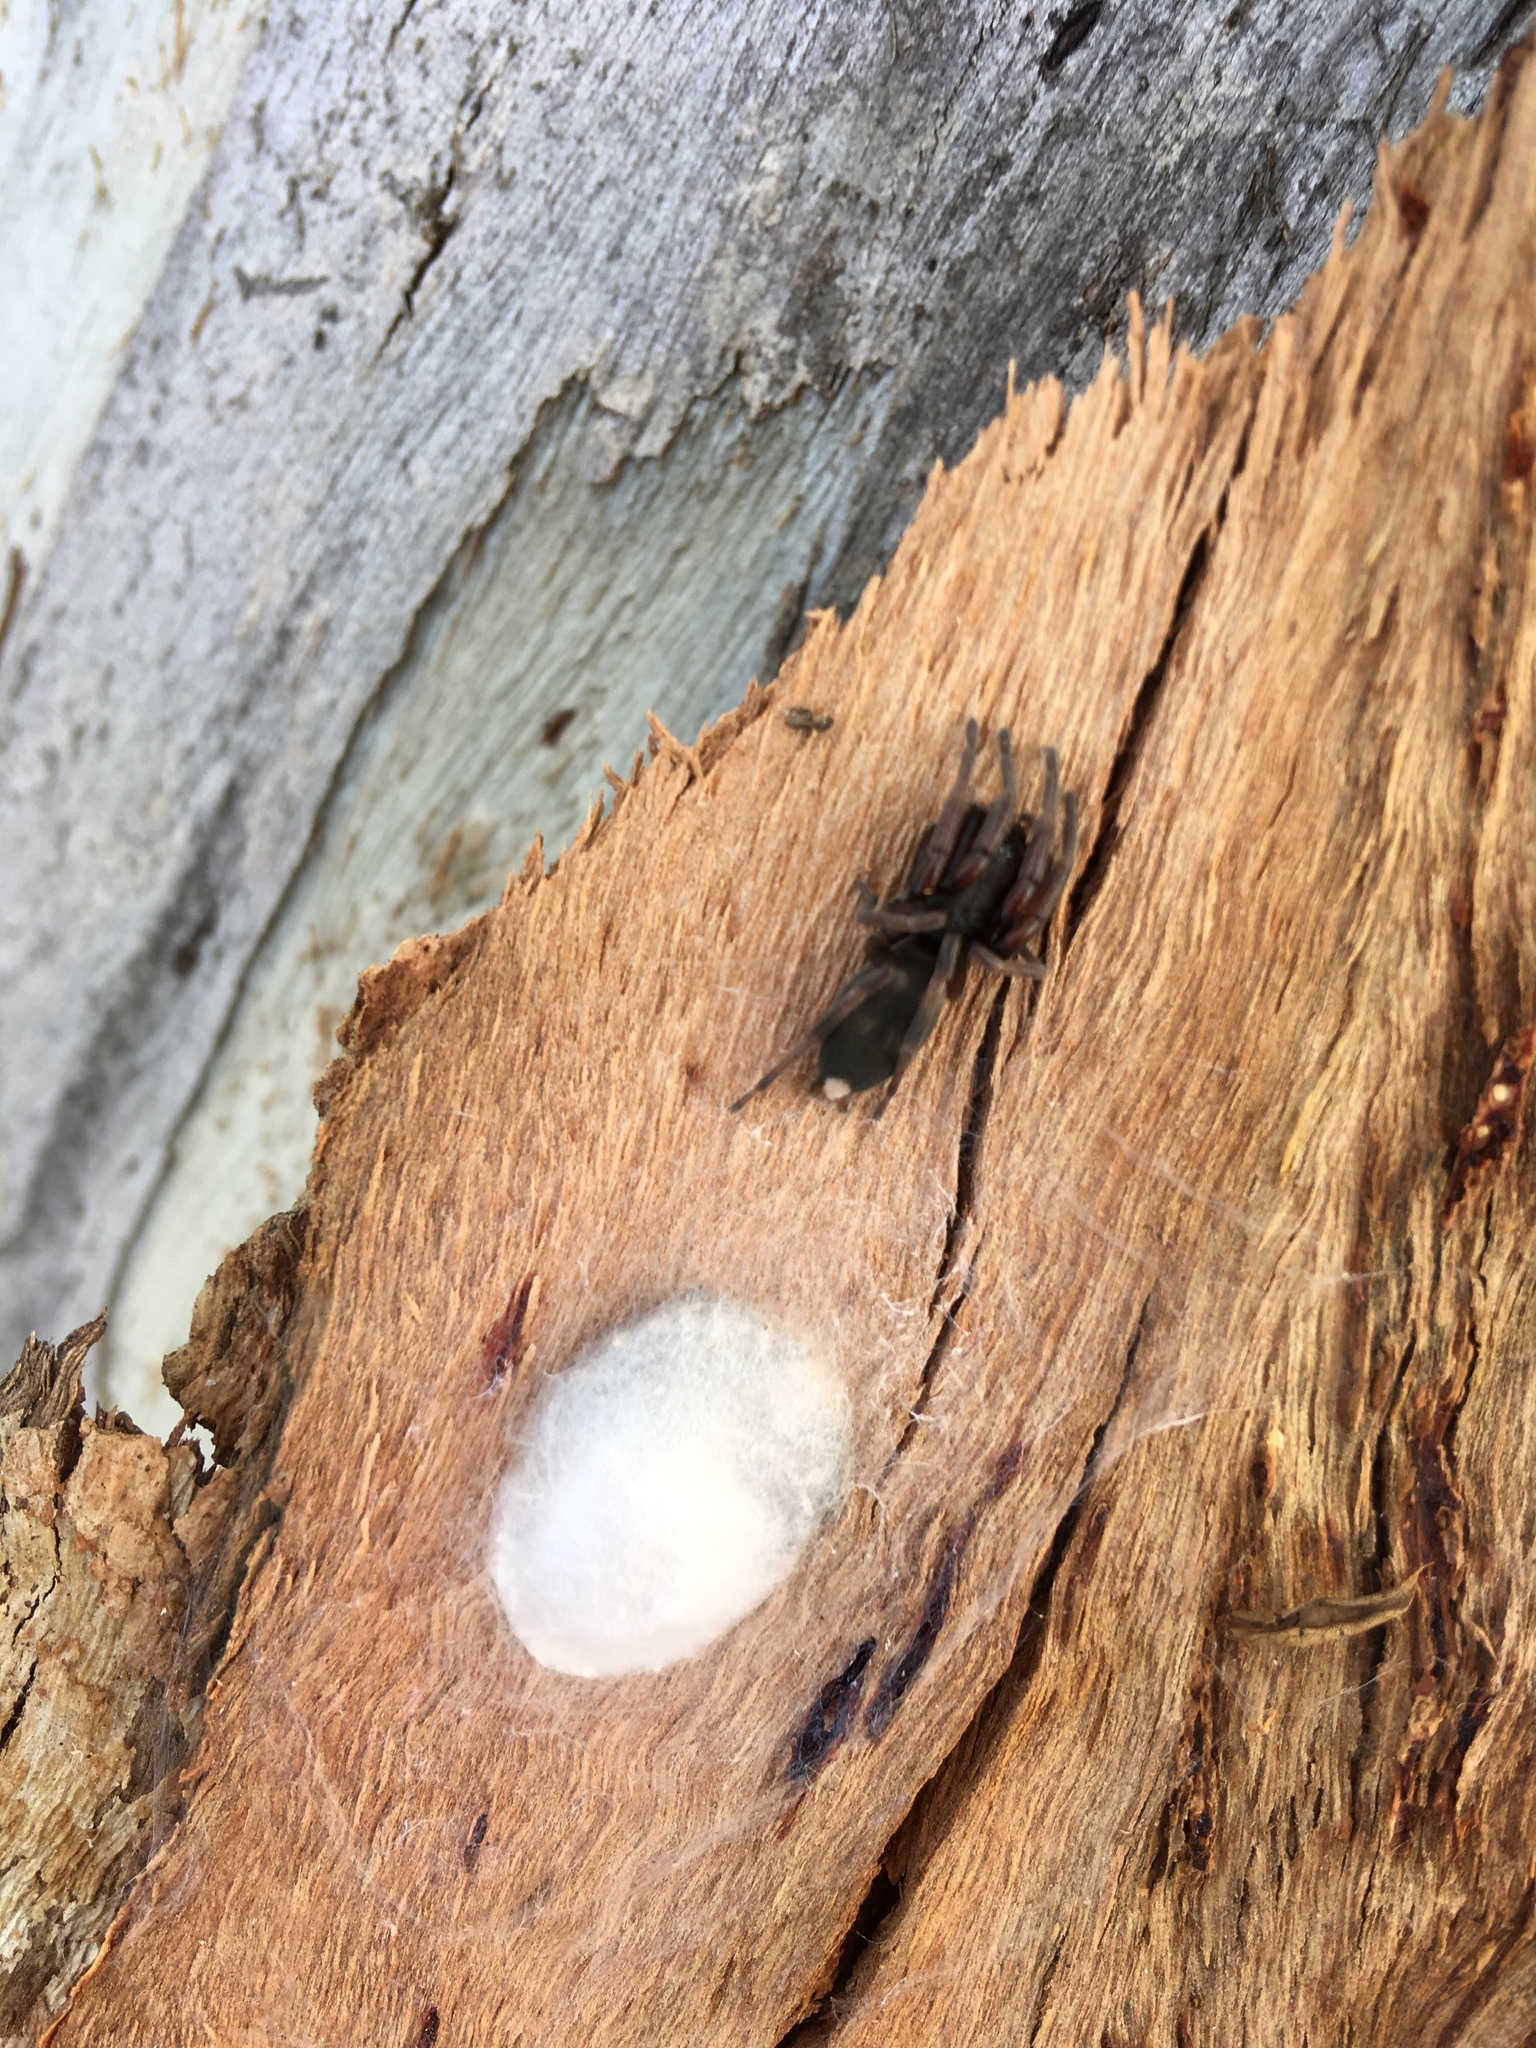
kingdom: Animalia
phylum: Arthropoda
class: Arachnida
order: Araneae
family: Lamponidae
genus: Lampona
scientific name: Lampona murina
